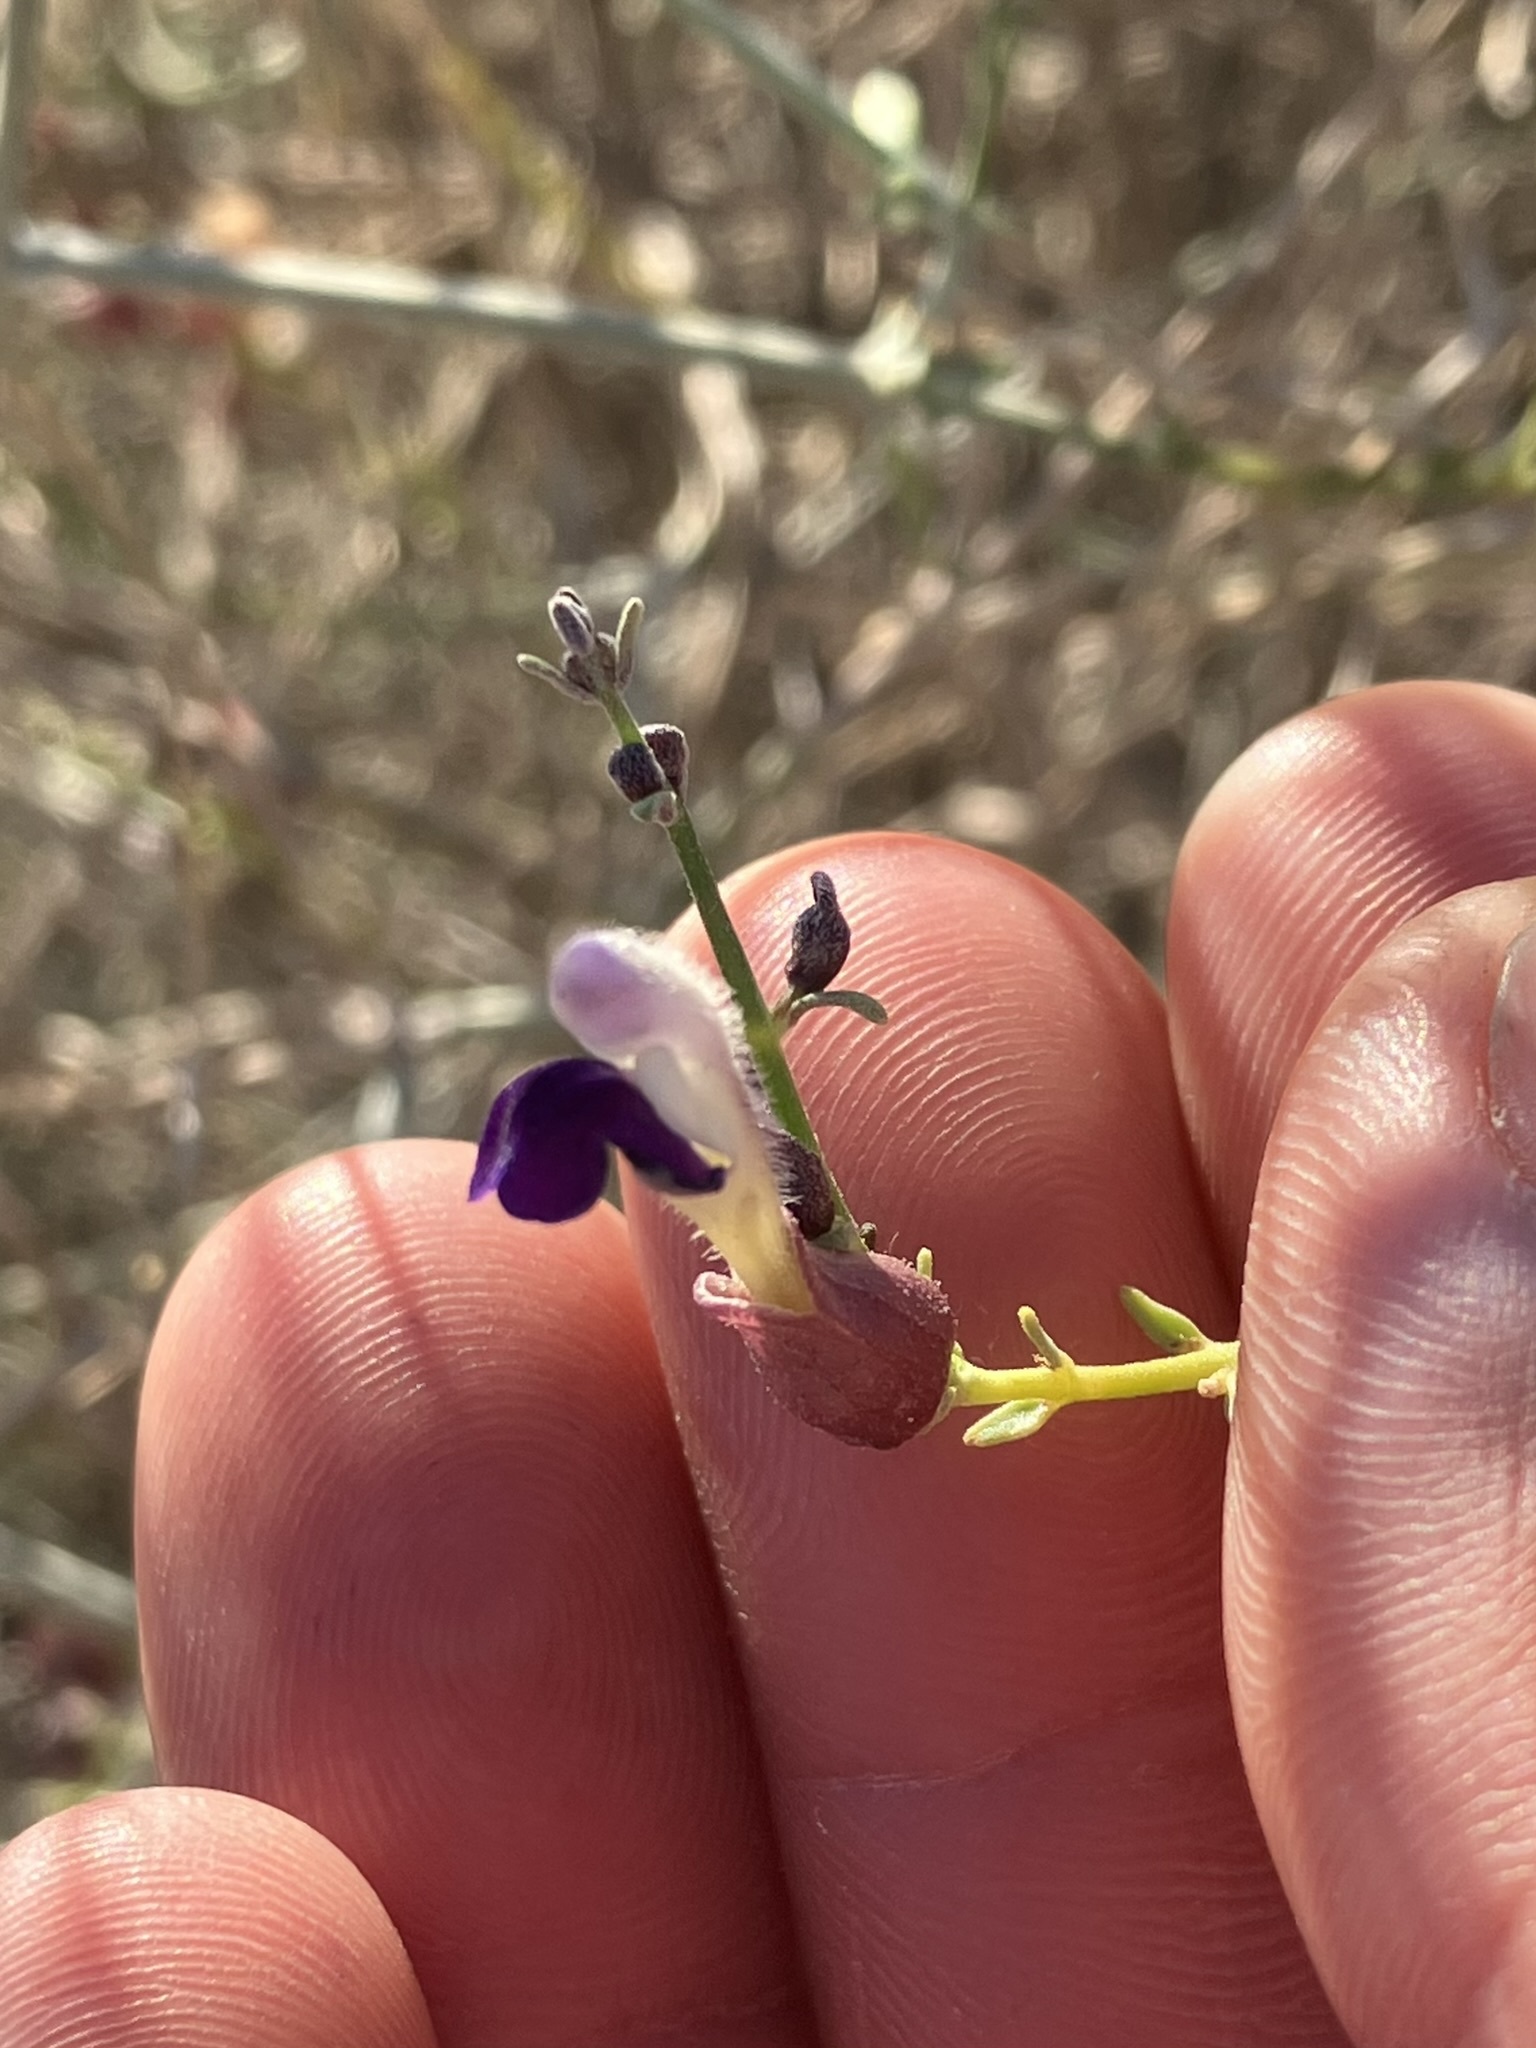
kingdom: Plantae
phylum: Tracheophyta
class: Magnoliopsida
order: Lamiales
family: Lamiaceae
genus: Scutellaria
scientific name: Scutellaria mexicana
